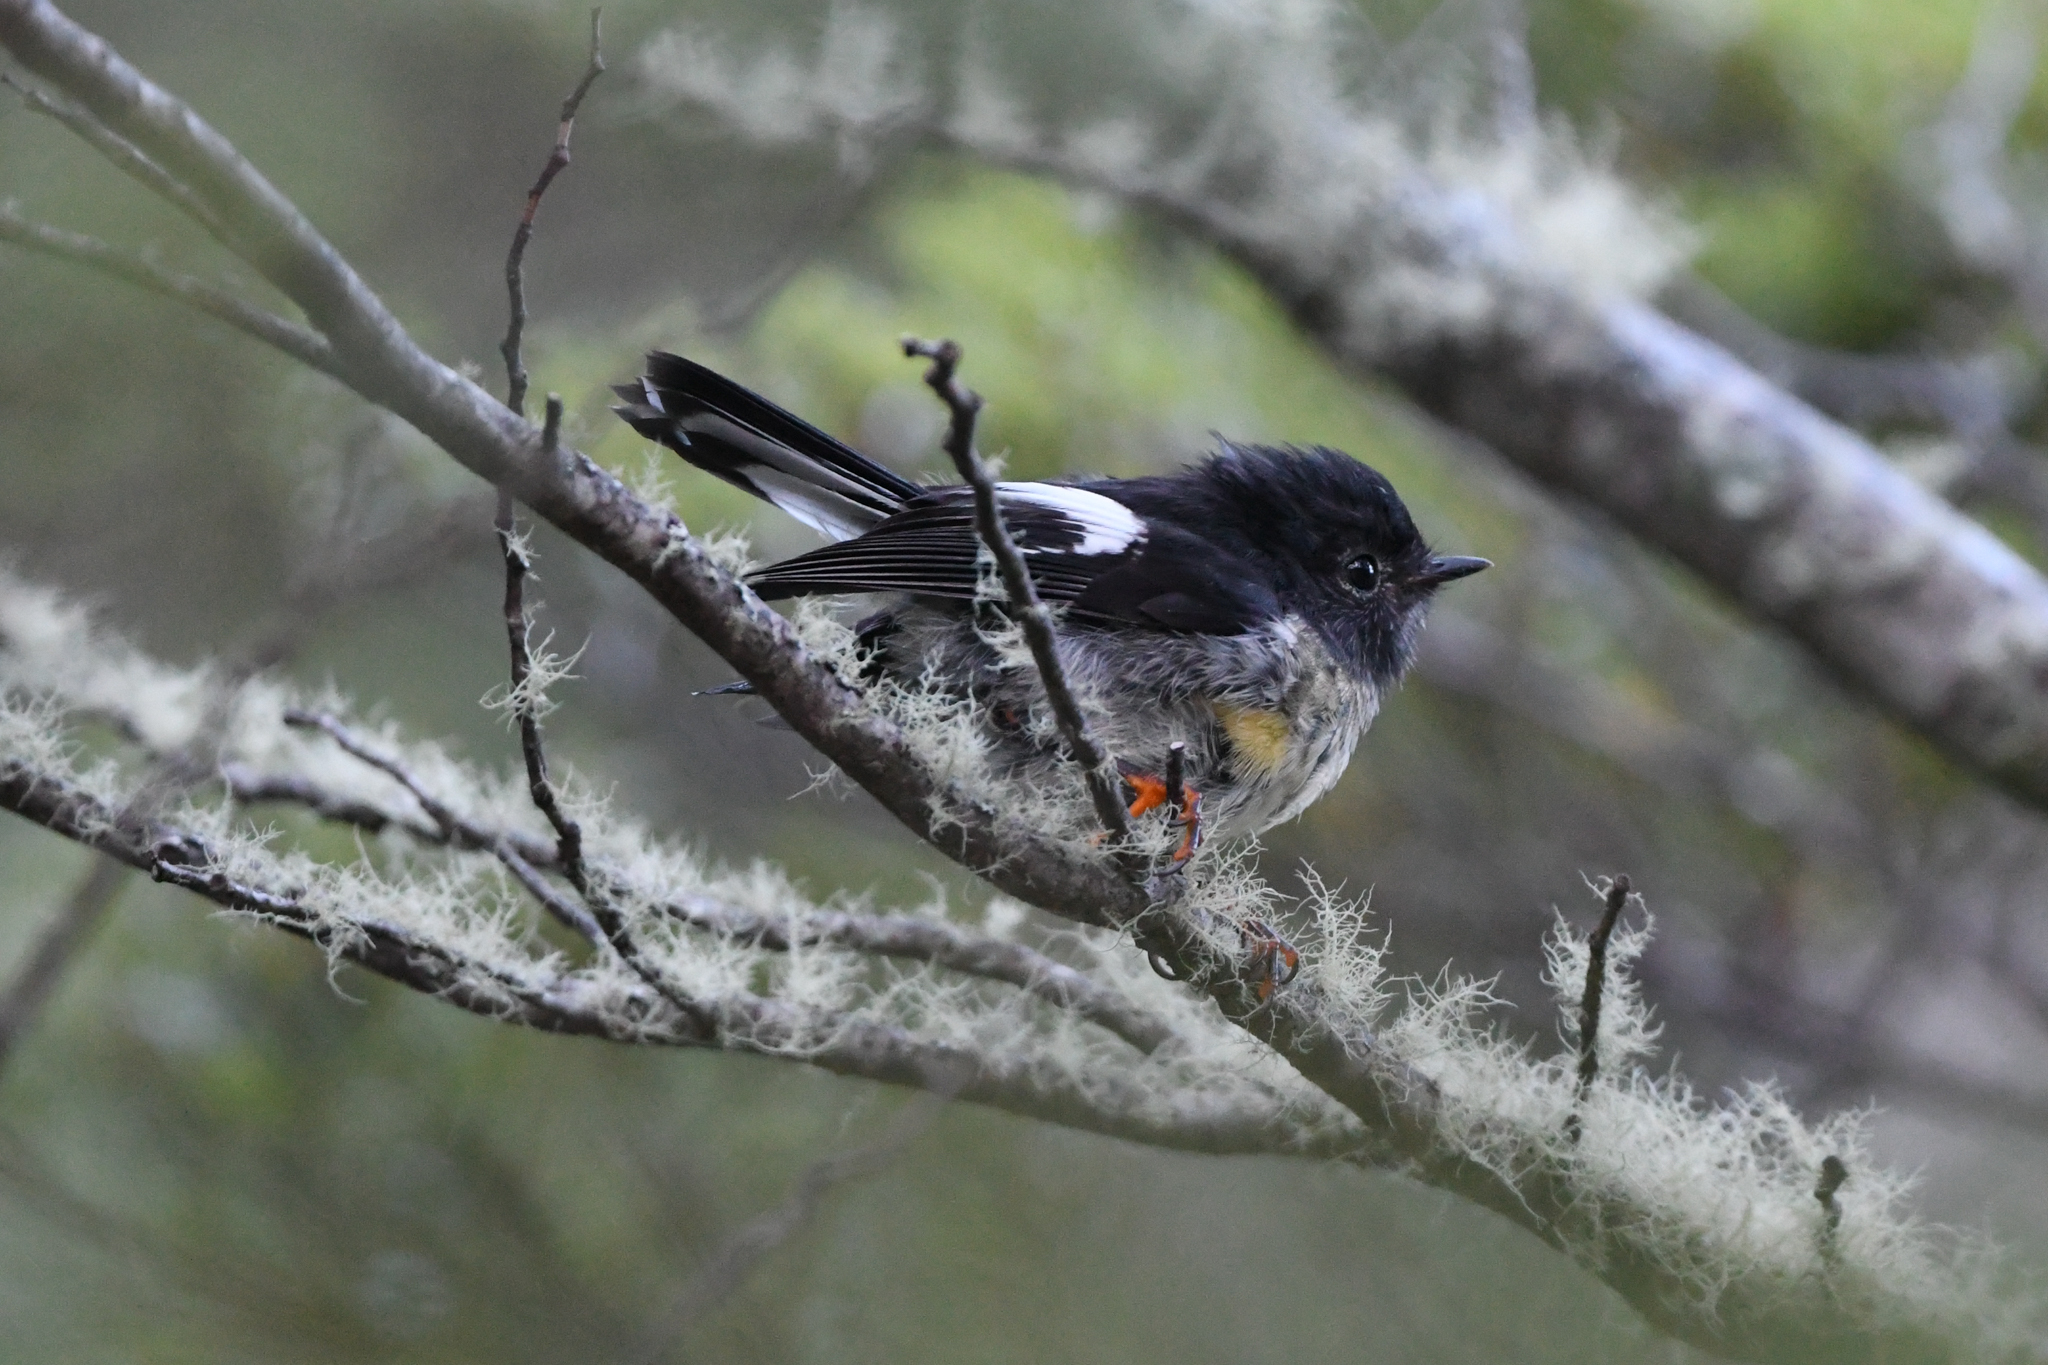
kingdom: Animalia
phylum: Chordata
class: Aves
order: Passeriformes
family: Petroicidae
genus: Petroica
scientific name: Petroica macrocephala
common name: Tomtit
